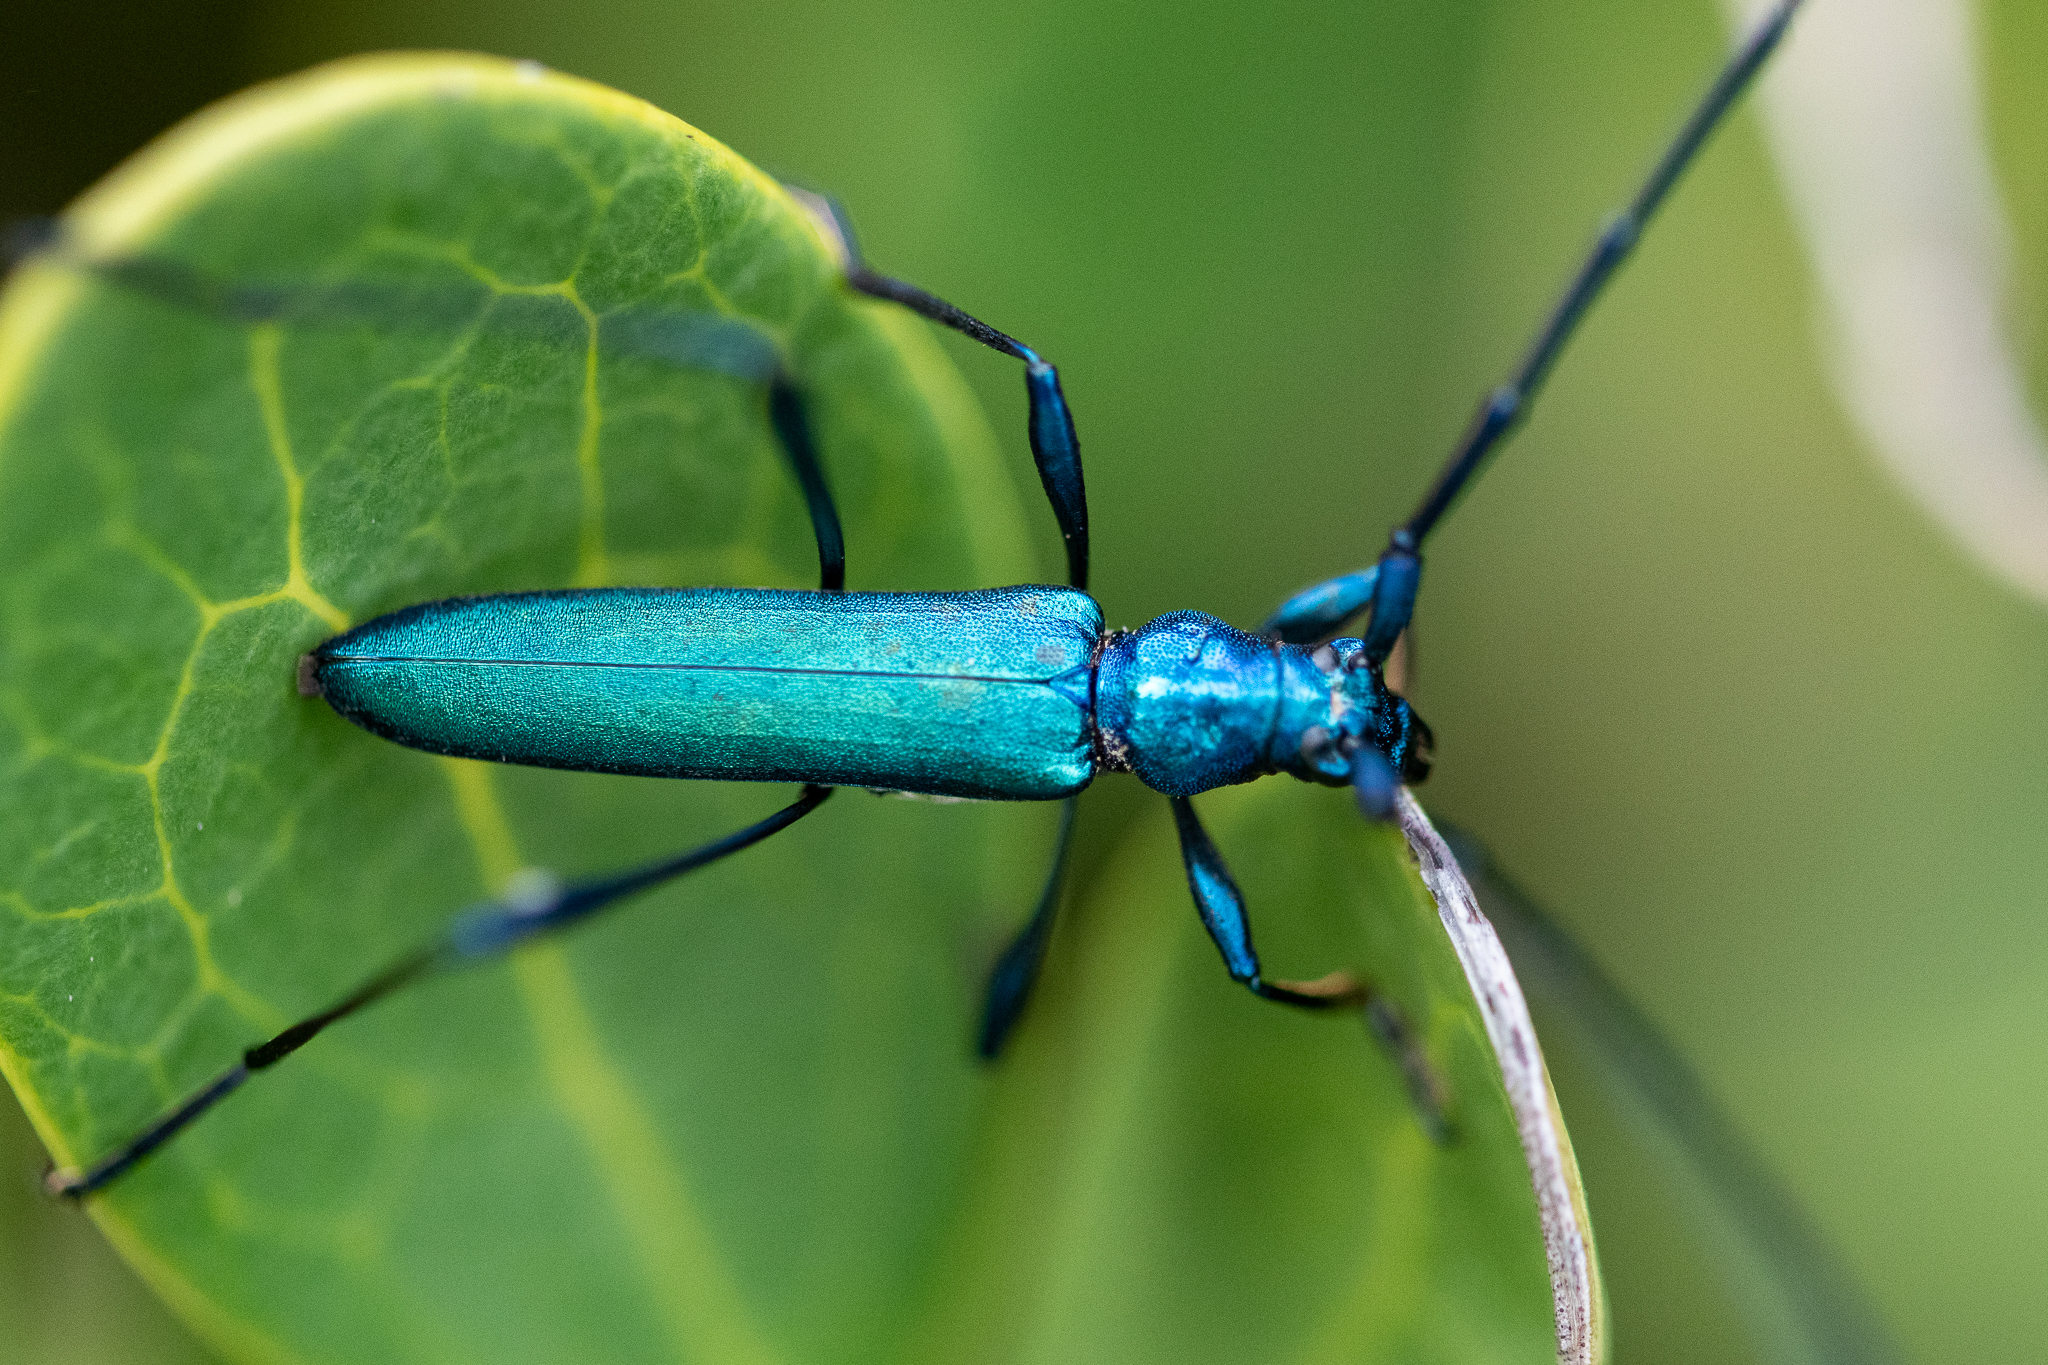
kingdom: Animalia
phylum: Arthropoda
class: Insecta
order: Coleoptera
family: Cerambycidae
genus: Promeces
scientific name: Promeces longipes
